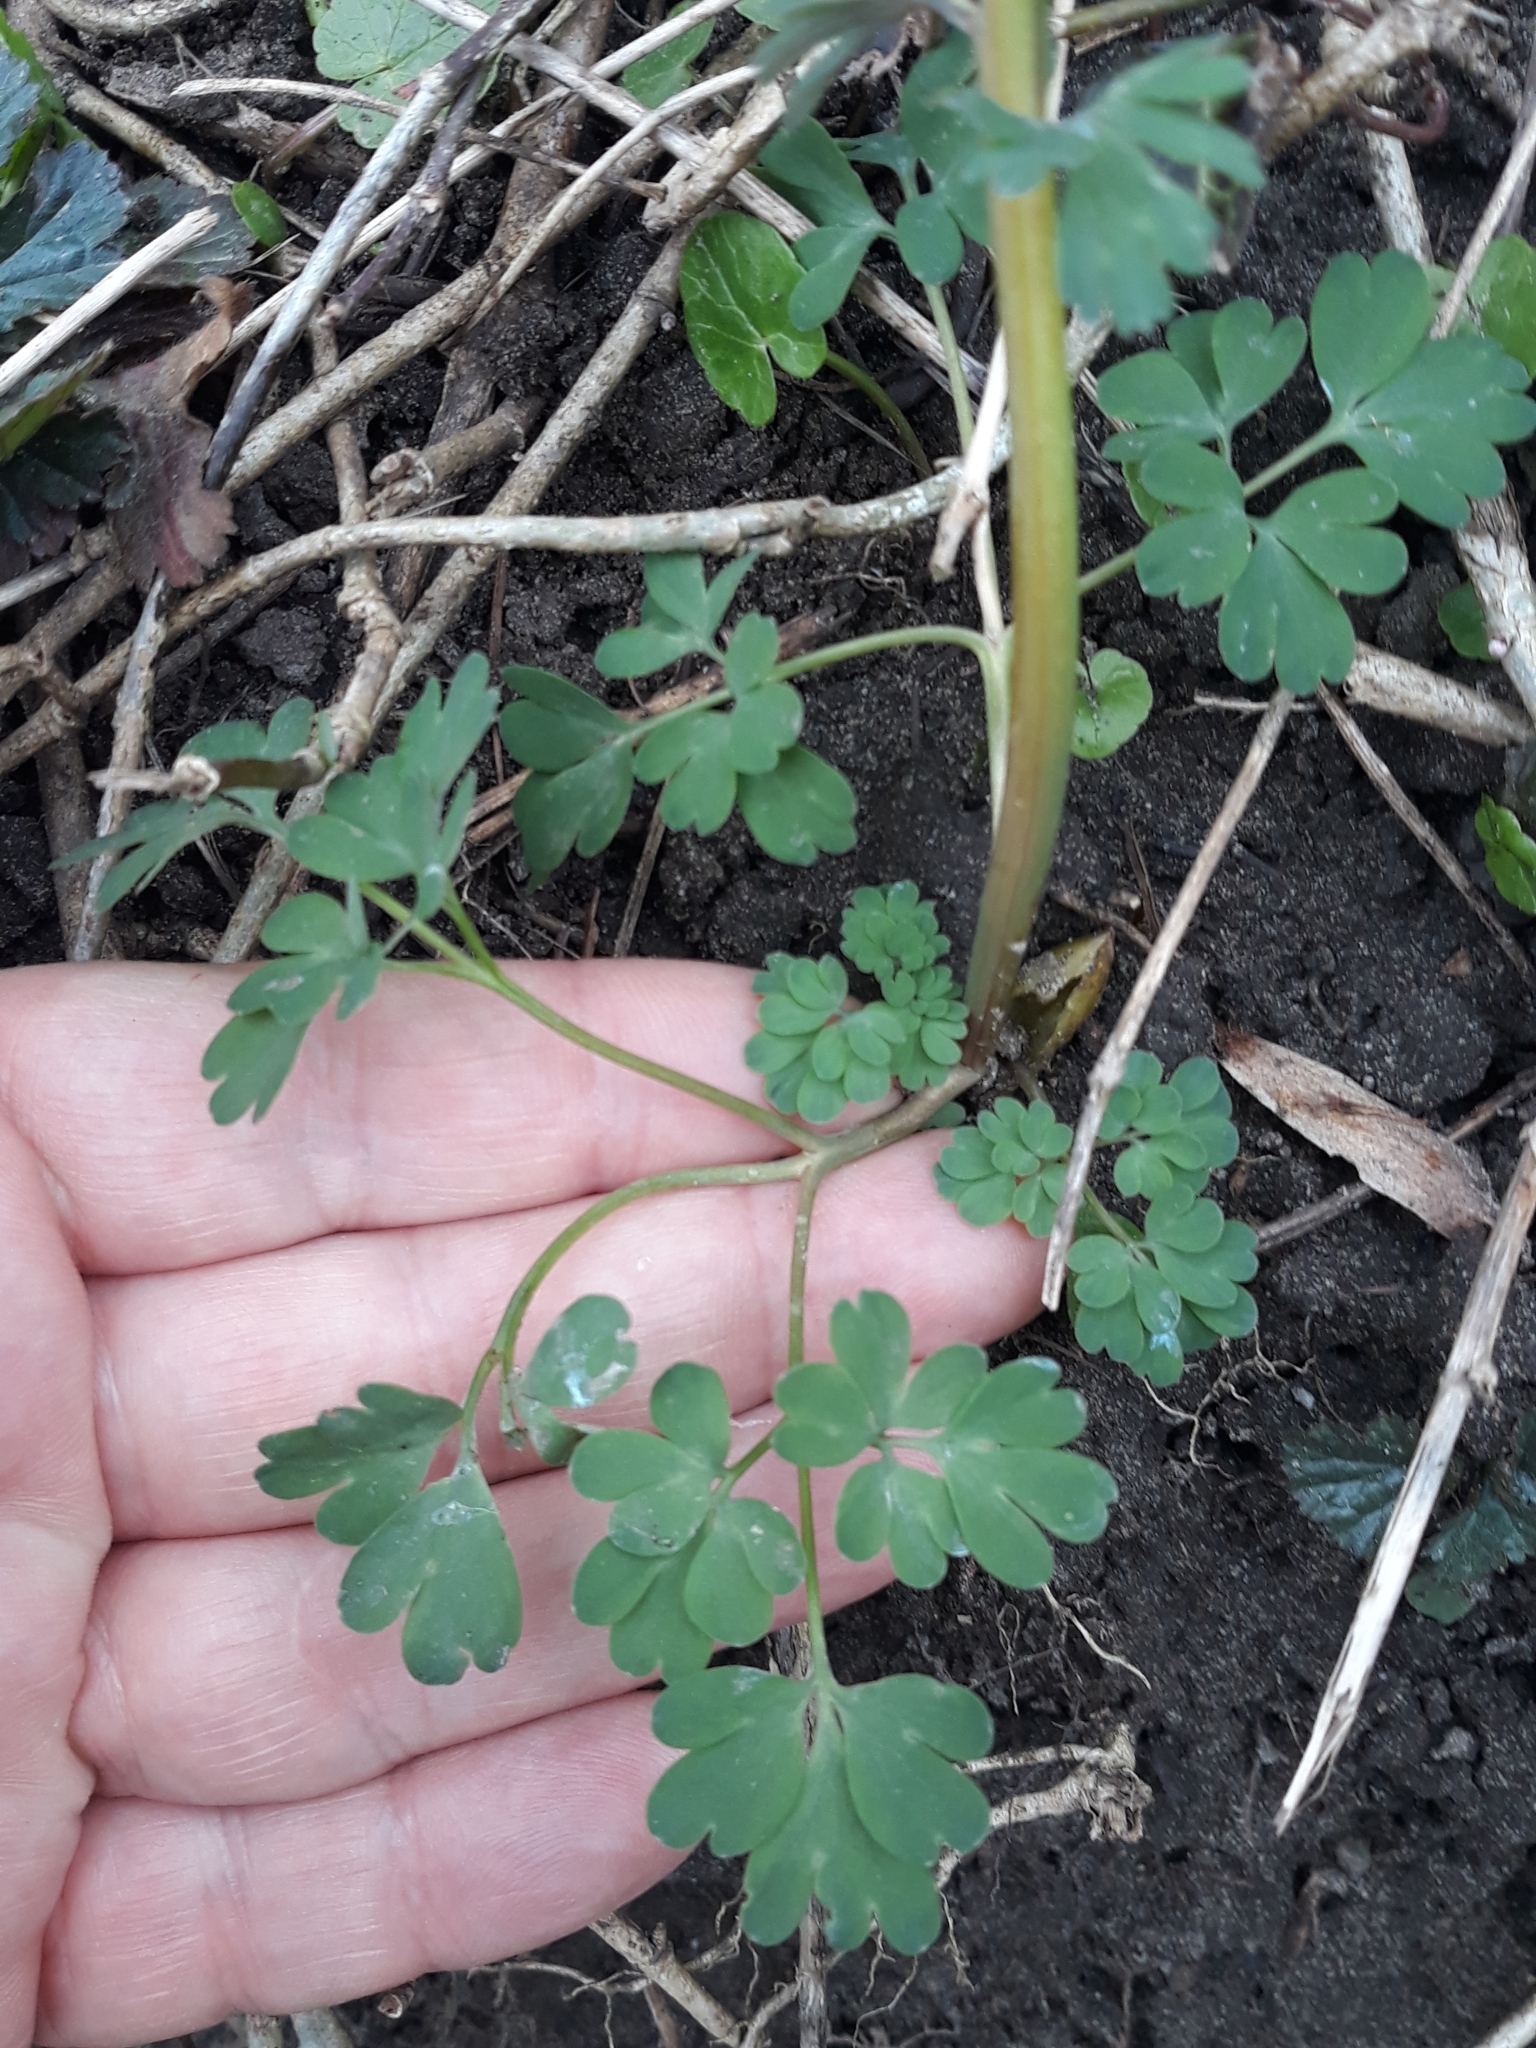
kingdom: Plantae
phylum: Tracheophyta
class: Magnoliopsida
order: Ranunculales
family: Papaveraceae
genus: Corydalis
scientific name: Corydalis solida
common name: Bird-in-a-bush
